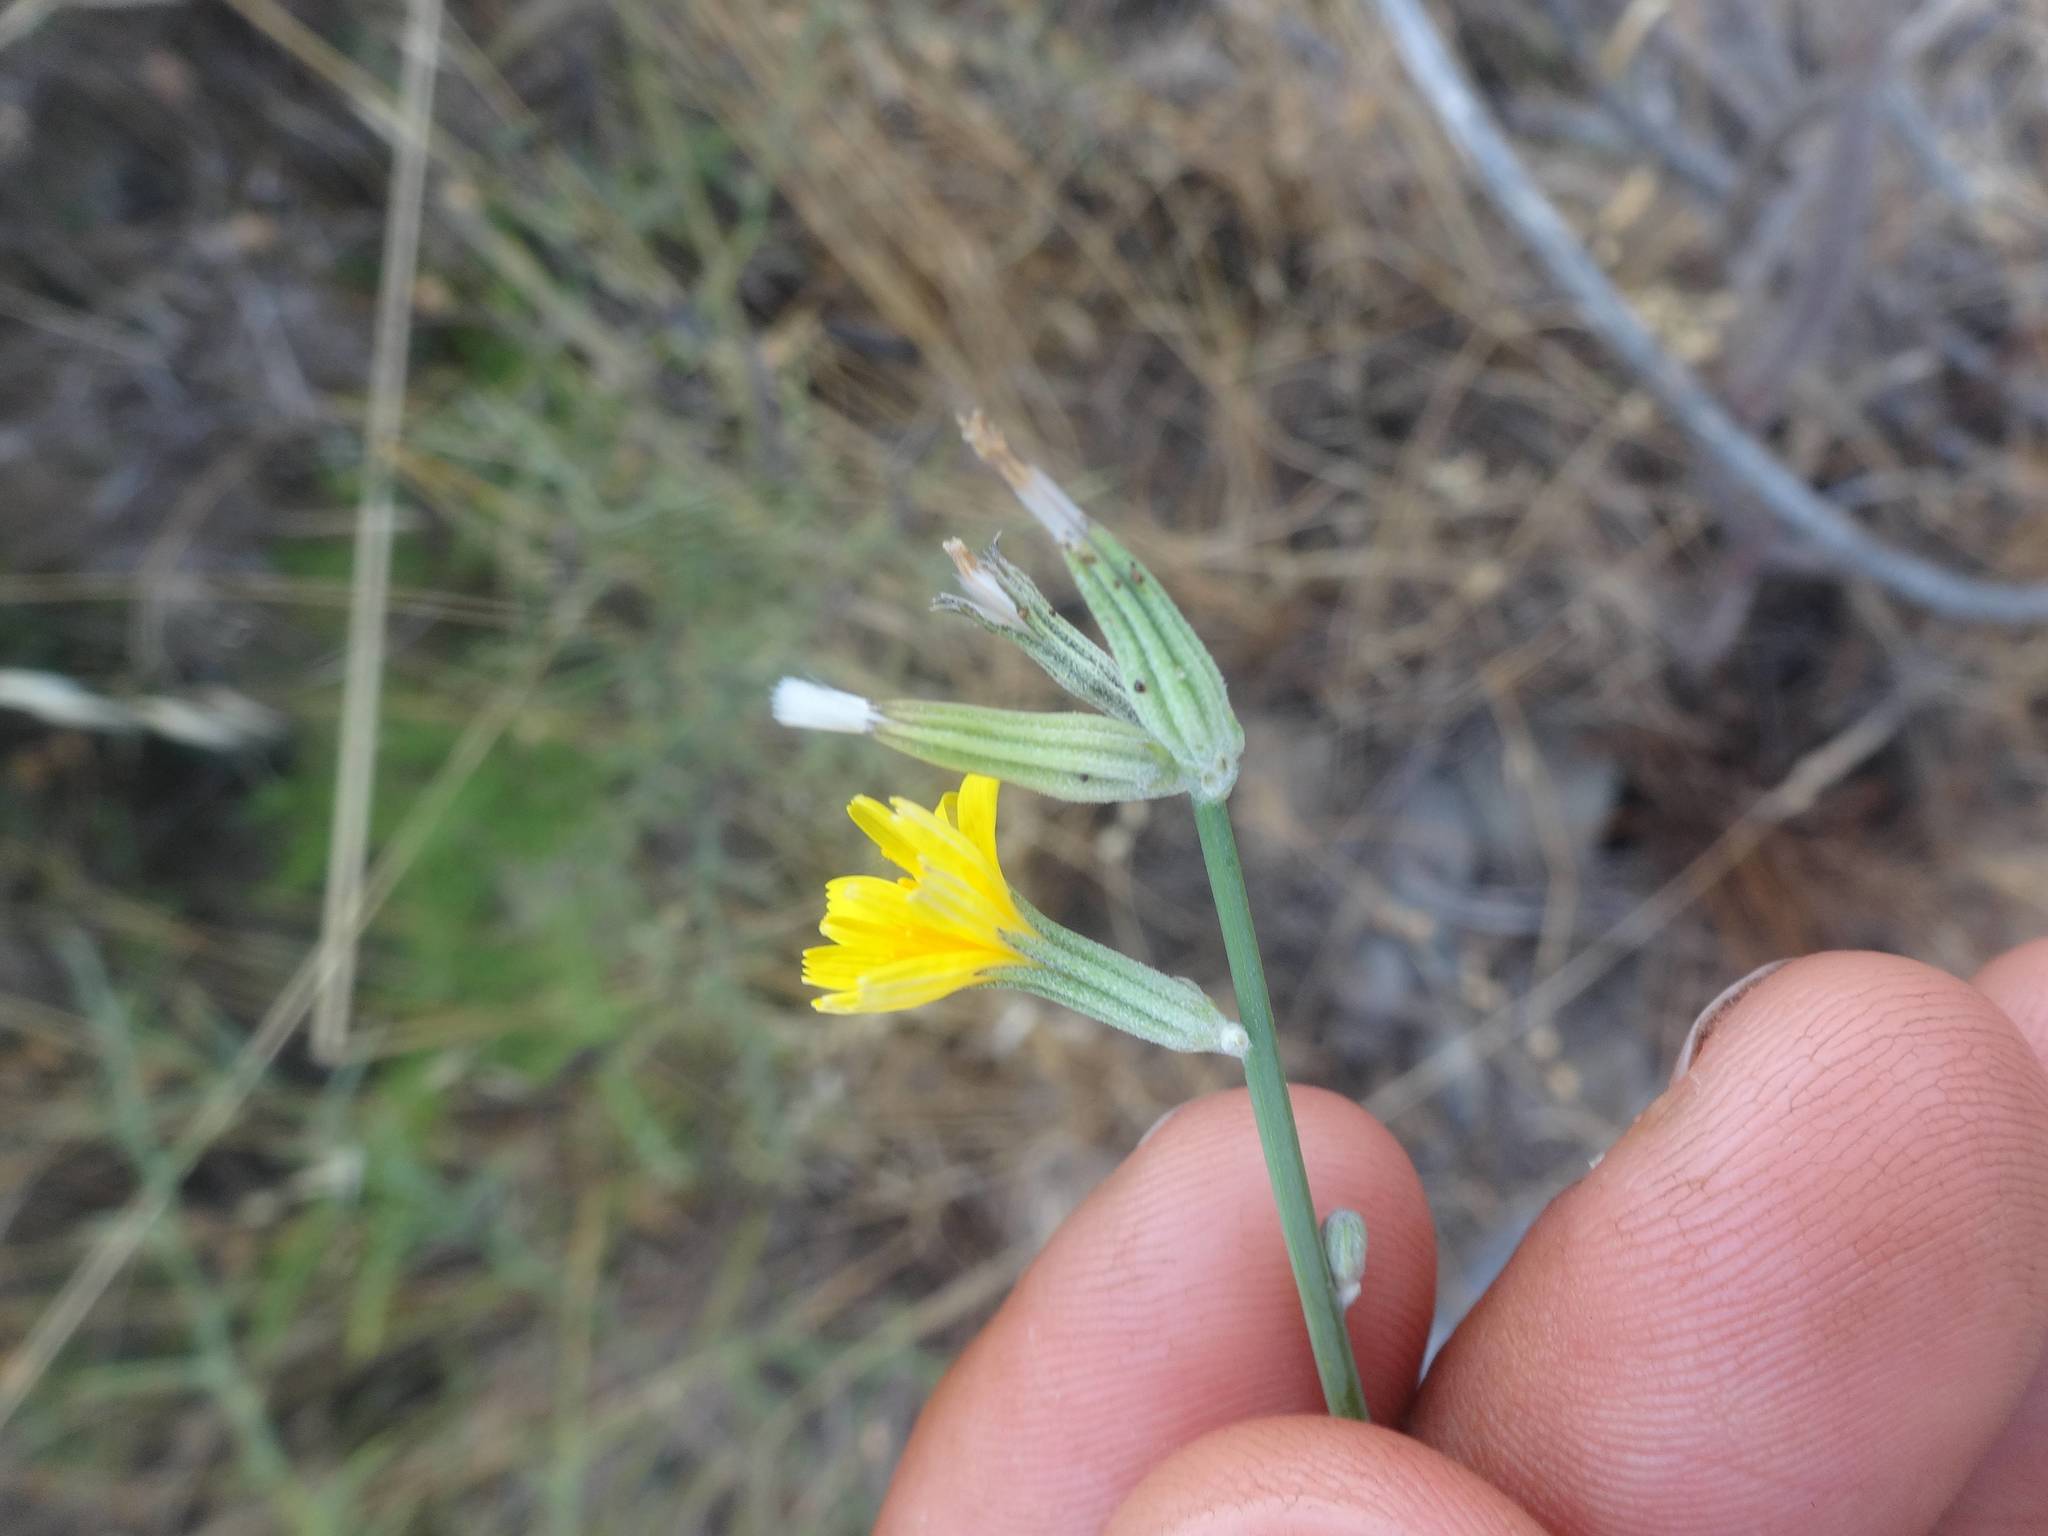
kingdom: Plantae
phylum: Tracheophyta
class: Magnoliopsida
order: Asterales
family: Asteraceae
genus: Chondrilla
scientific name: Chondrilla juncea
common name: Skeleton weed
